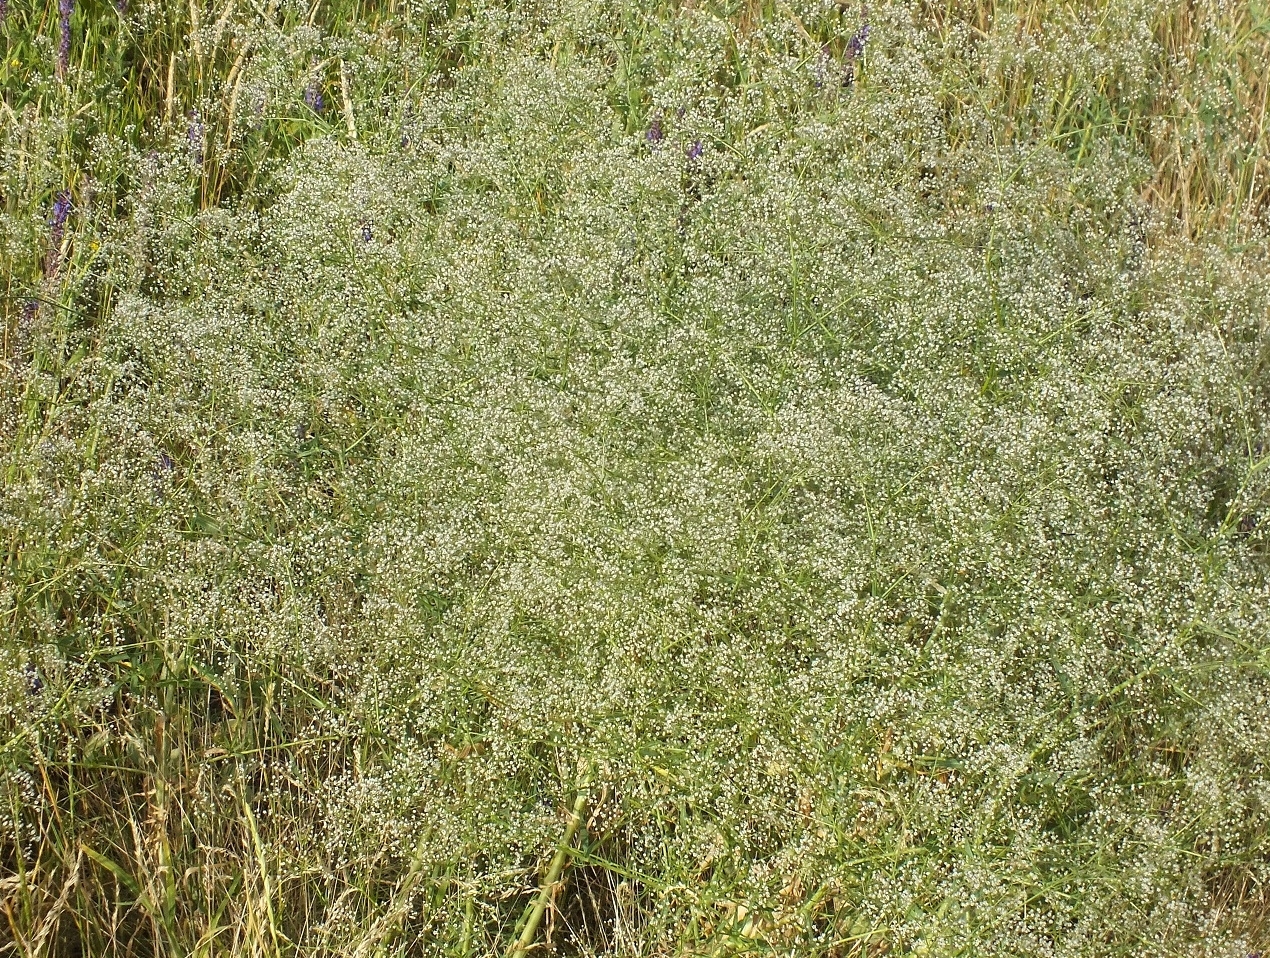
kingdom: Plantae
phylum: Tracheophyta
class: Magnoliopsida
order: Caryophyllales
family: Caryophyllaceae
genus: Gypsophila
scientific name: Gypsophila paniculata
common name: Baby's-breath
